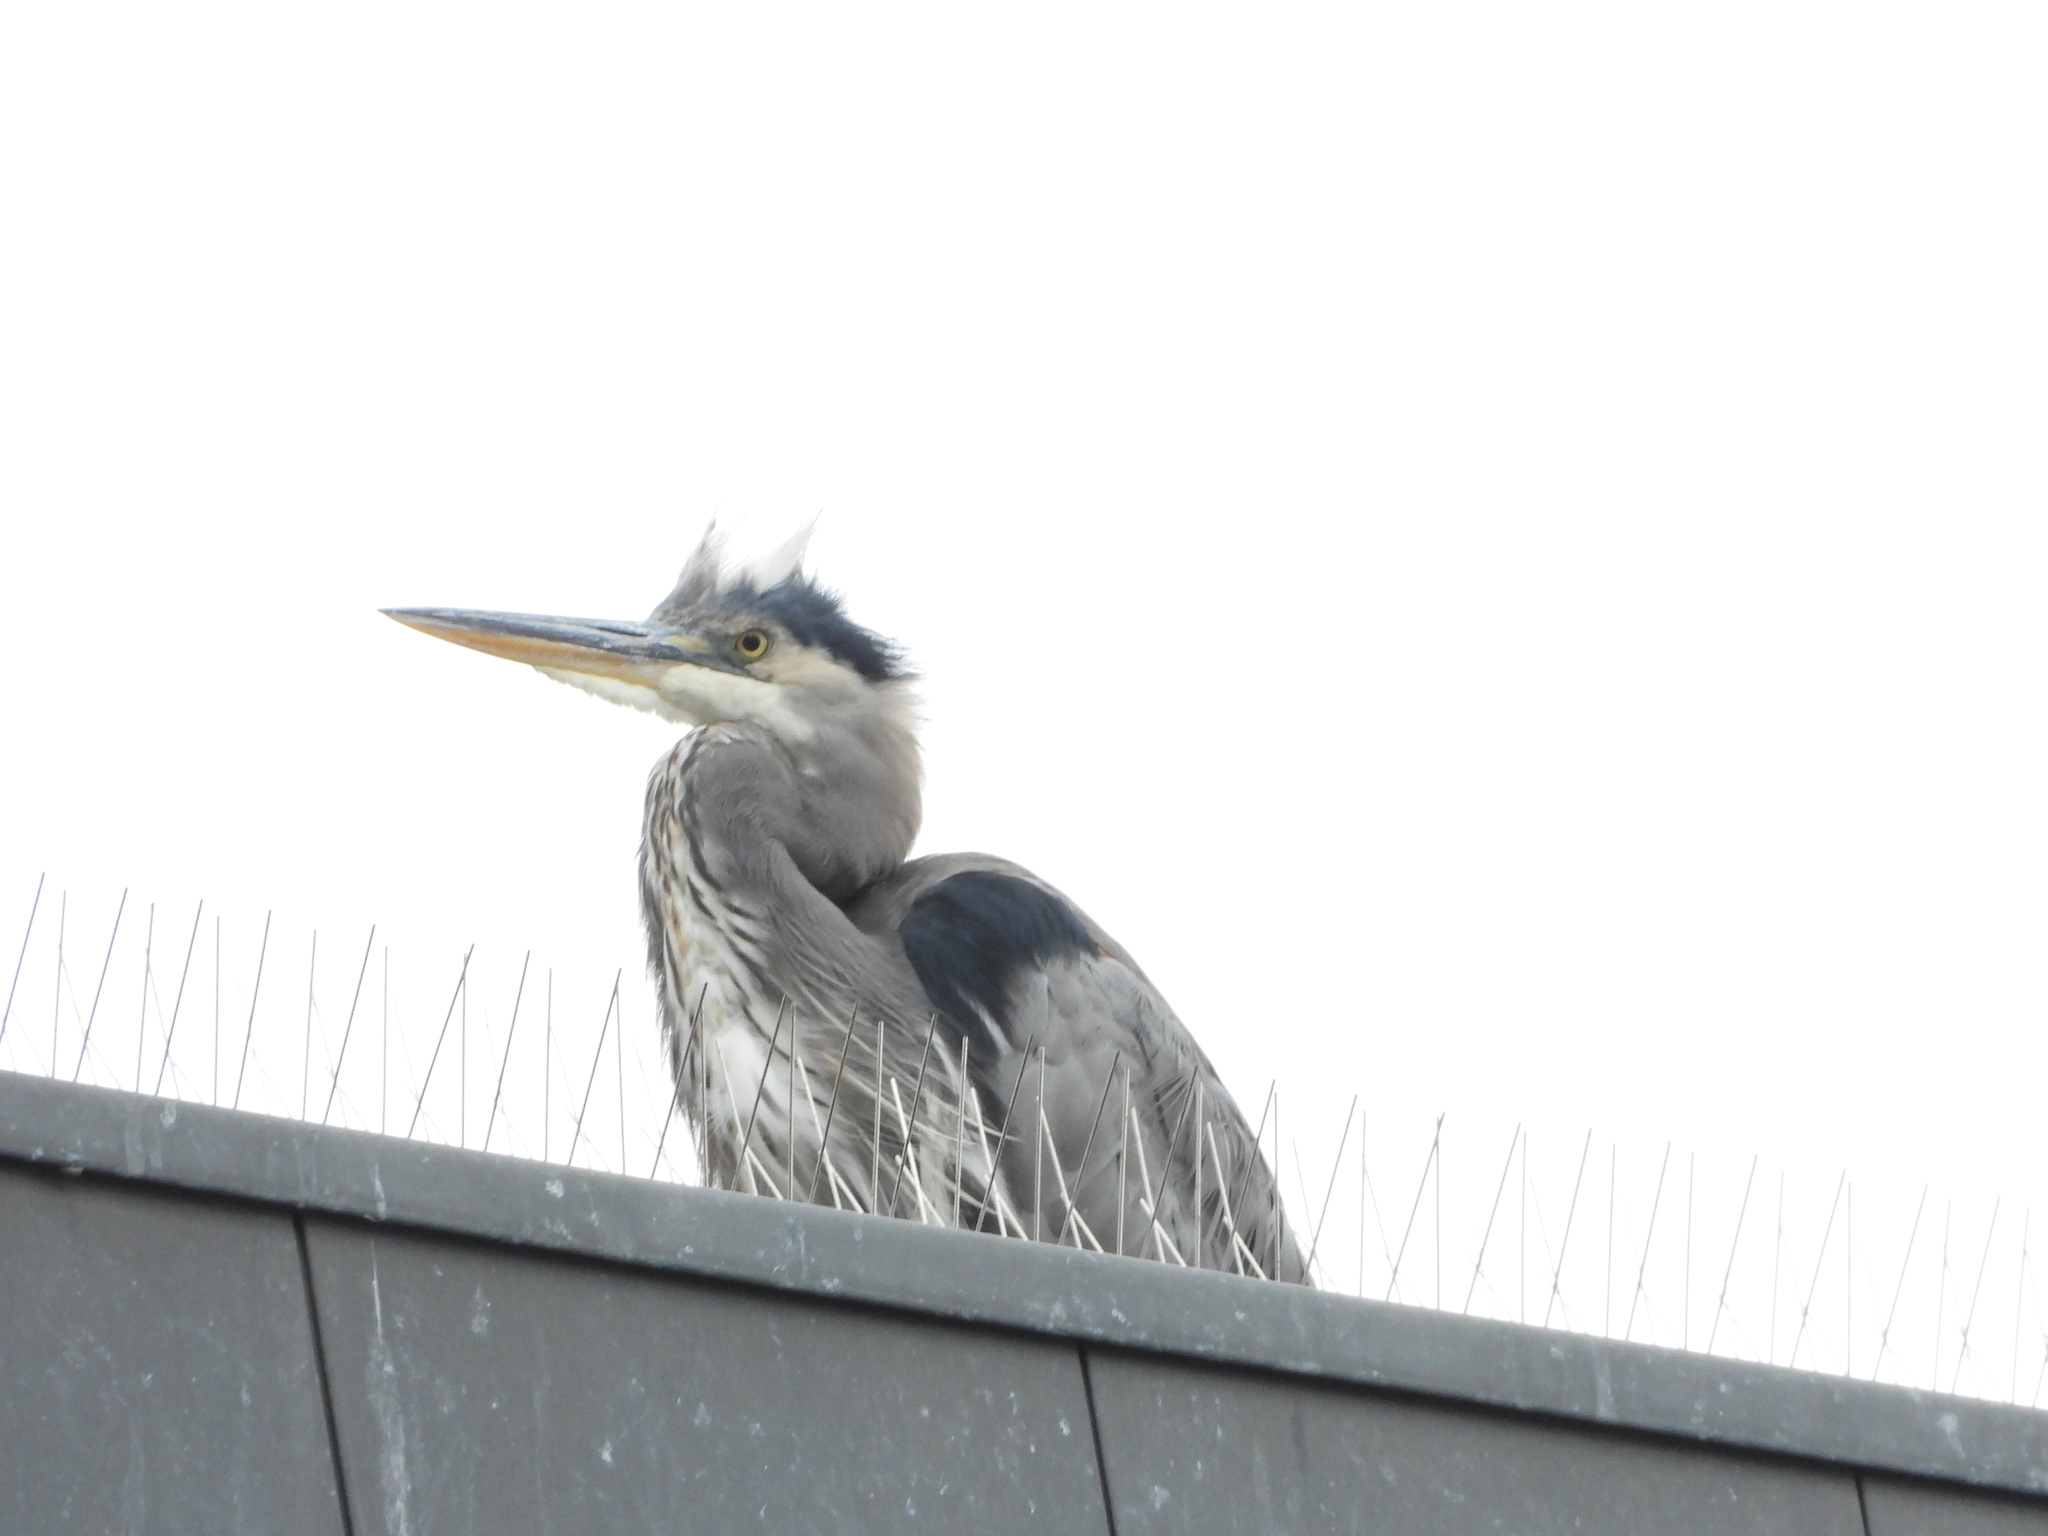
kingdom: Animalia
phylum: Chordata
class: Aves
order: Pelecaniformes
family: Ardeidae
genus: Ardea
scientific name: Ardea herodias
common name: Great blue heron
